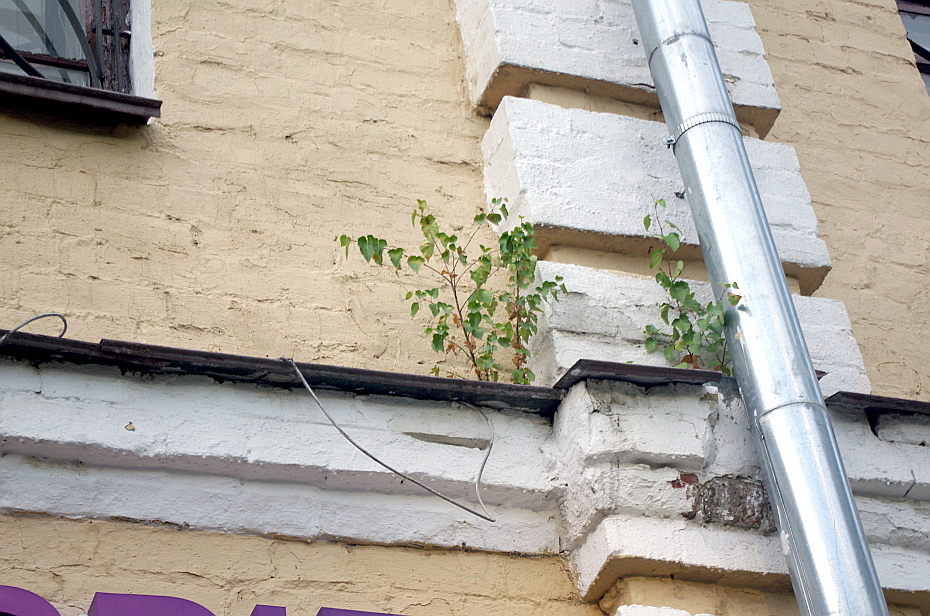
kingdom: Plantae
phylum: Tracheophyta
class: Magnoliopsida
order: Fagales
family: Betulaceae
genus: Betula
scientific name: Betula pendula
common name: Silver birch
